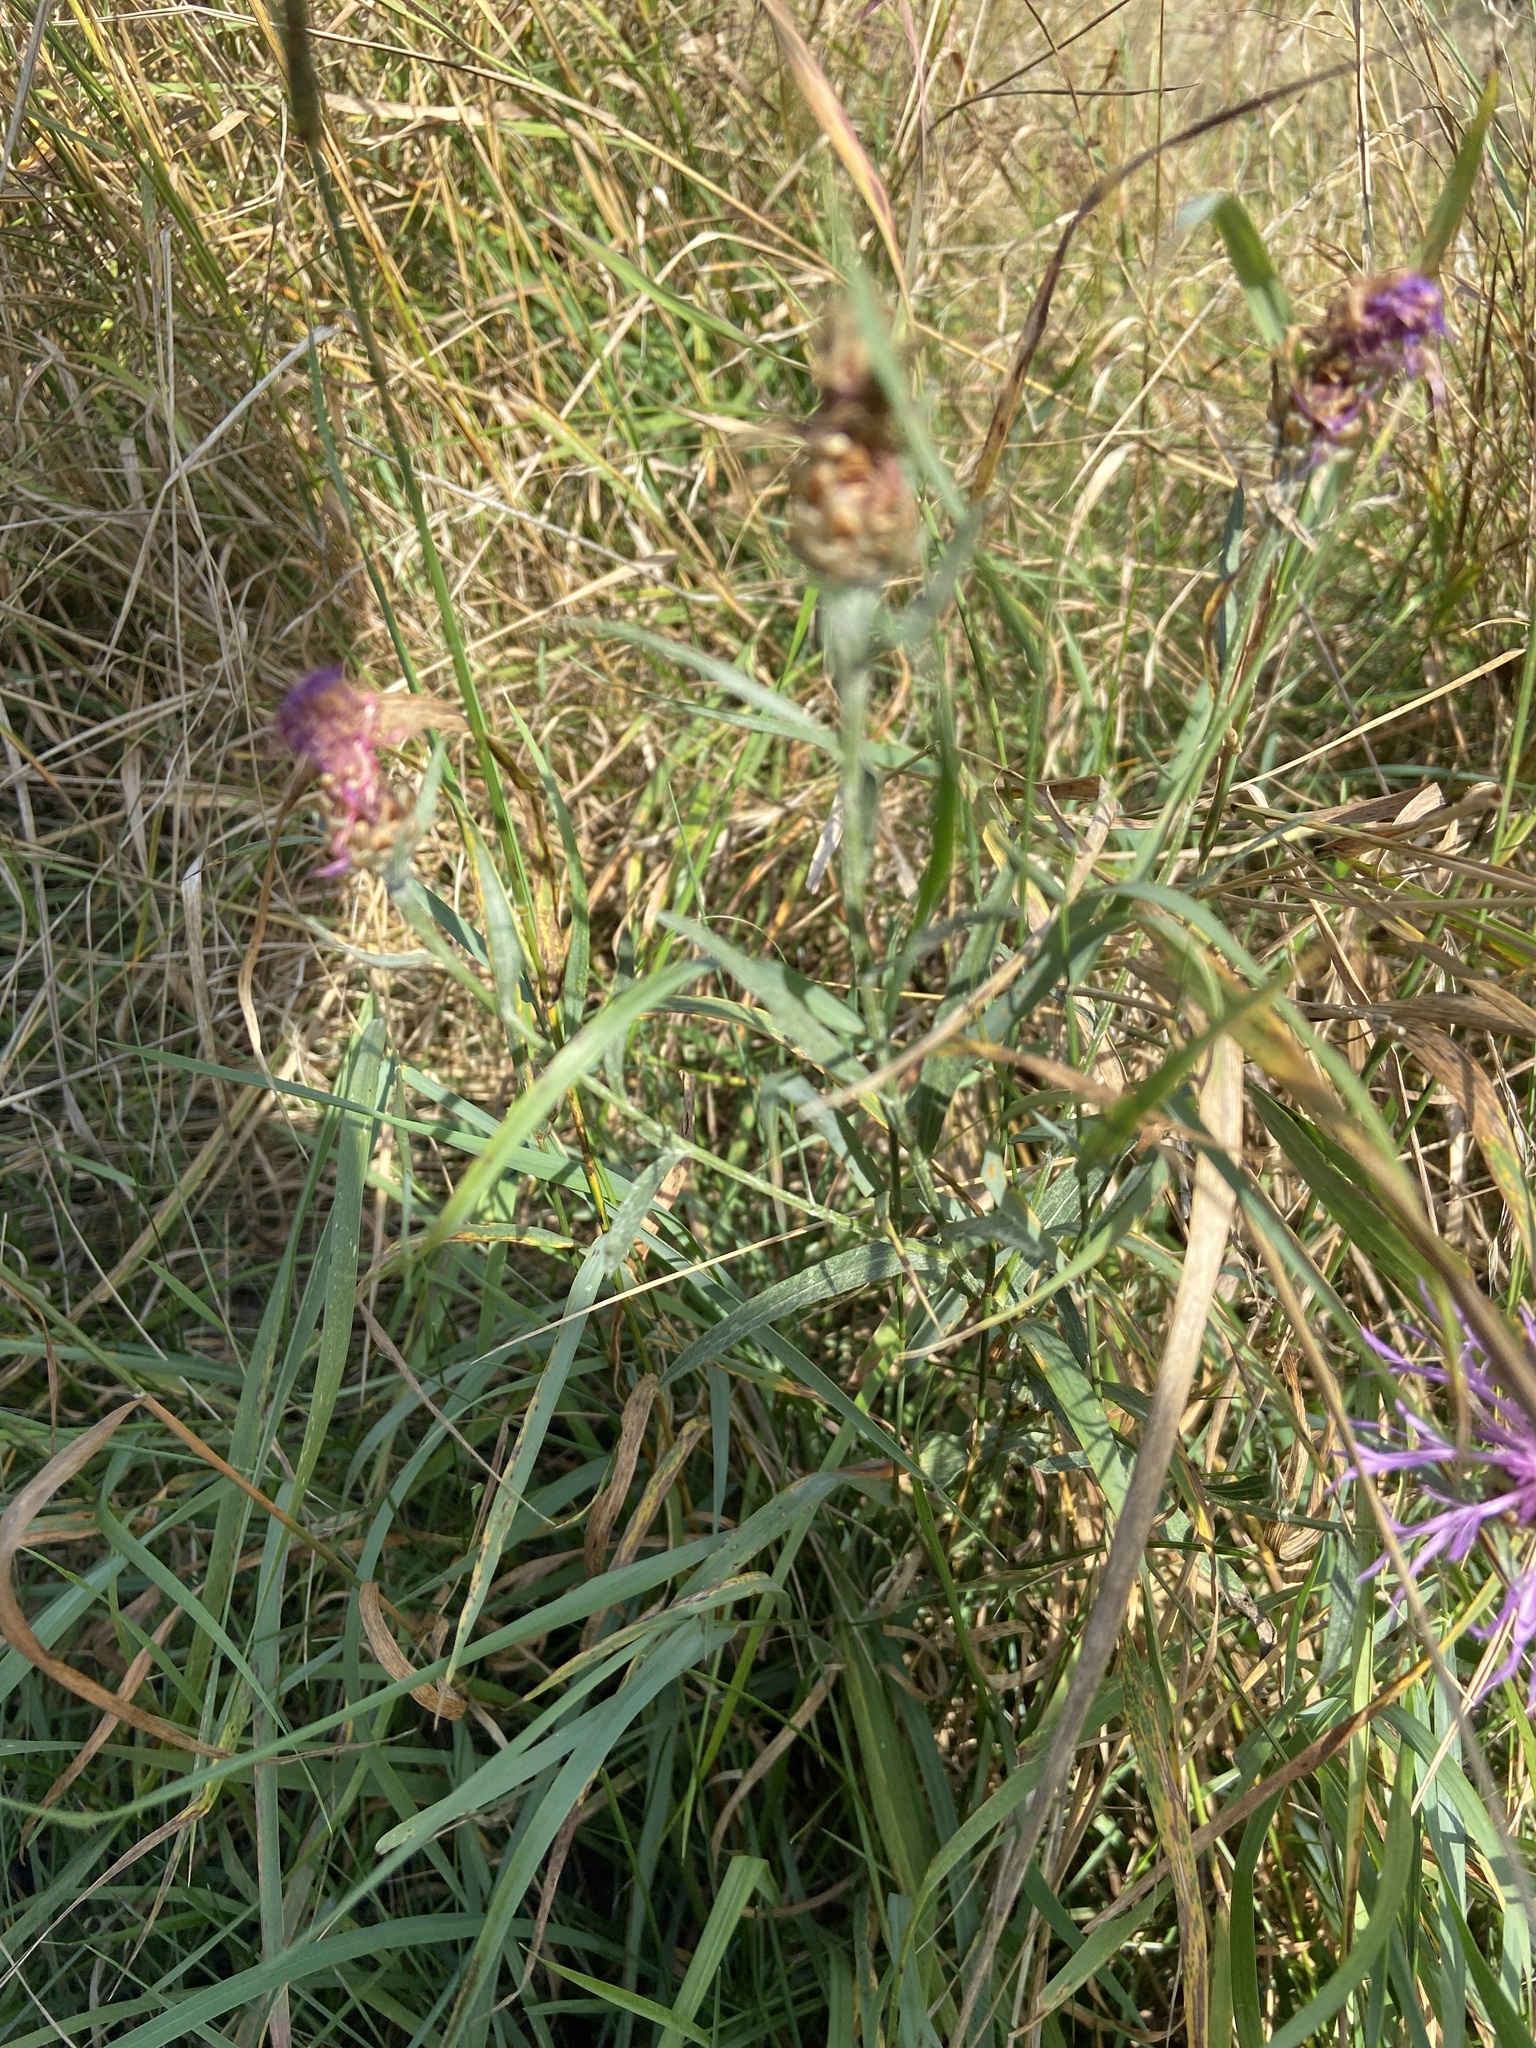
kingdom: Plantae
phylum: Tracheophyta
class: Magnoliopsida
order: Asterales
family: Asteraceae
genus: Centaurea
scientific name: Centaurea jacea
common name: Brown knapweed
